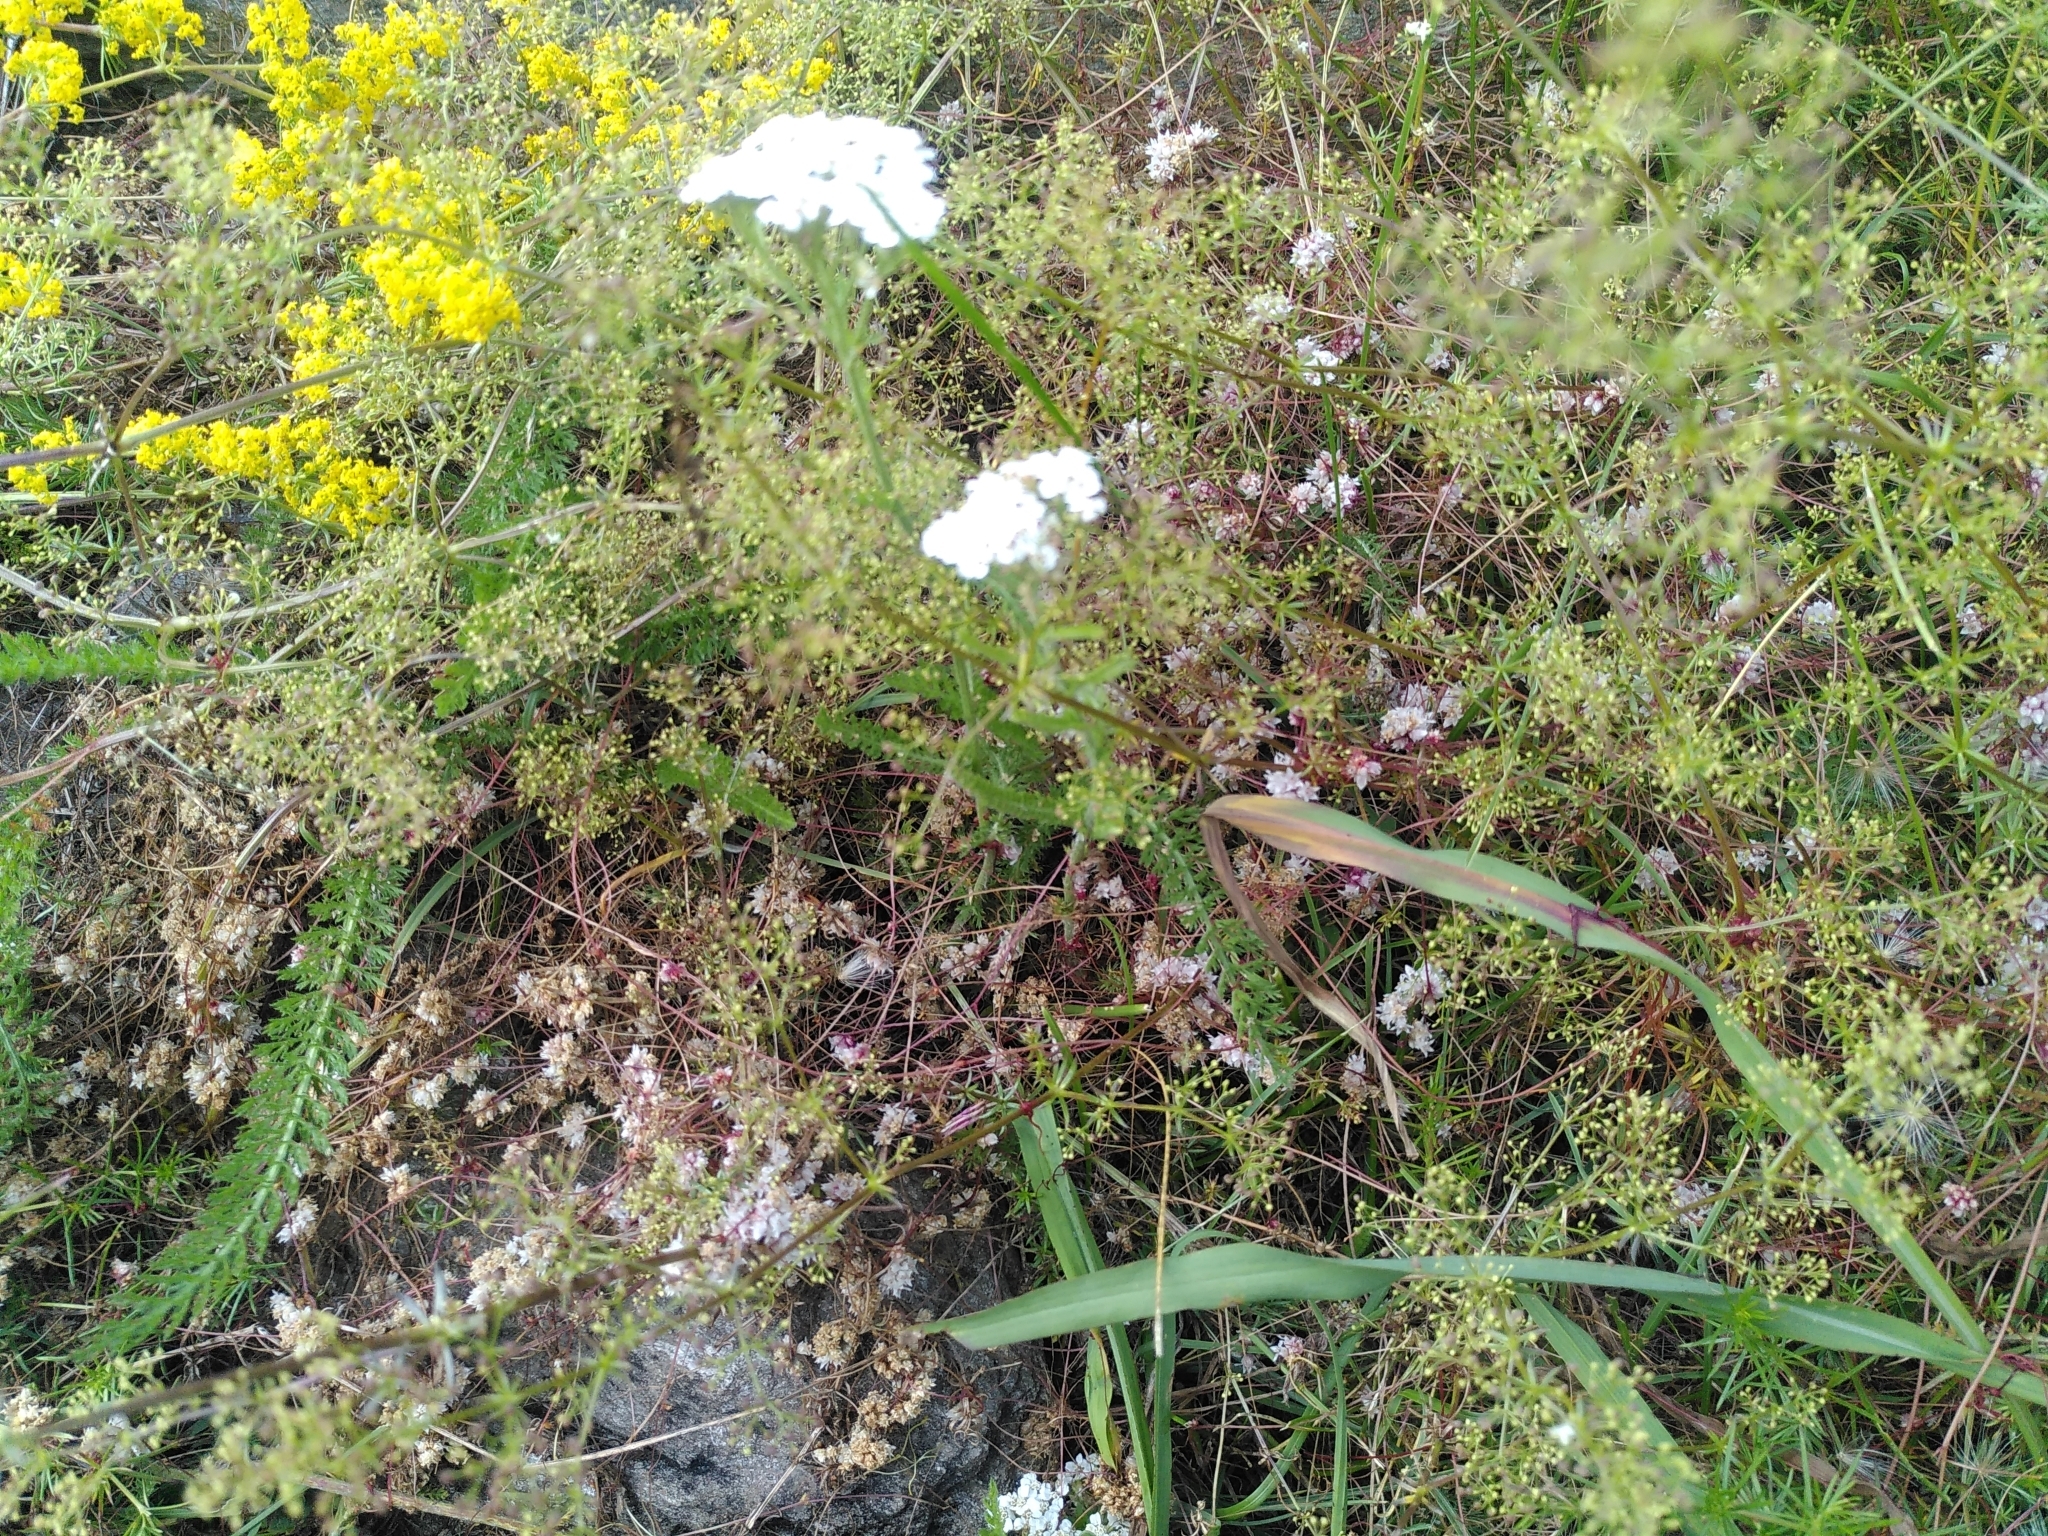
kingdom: Plantae
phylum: Tracheophyta
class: Magnoliopsida
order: Solanales
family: Convolvulaceae
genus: Cuscuta
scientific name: Cuscuta epithymum
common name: Clover dodder
